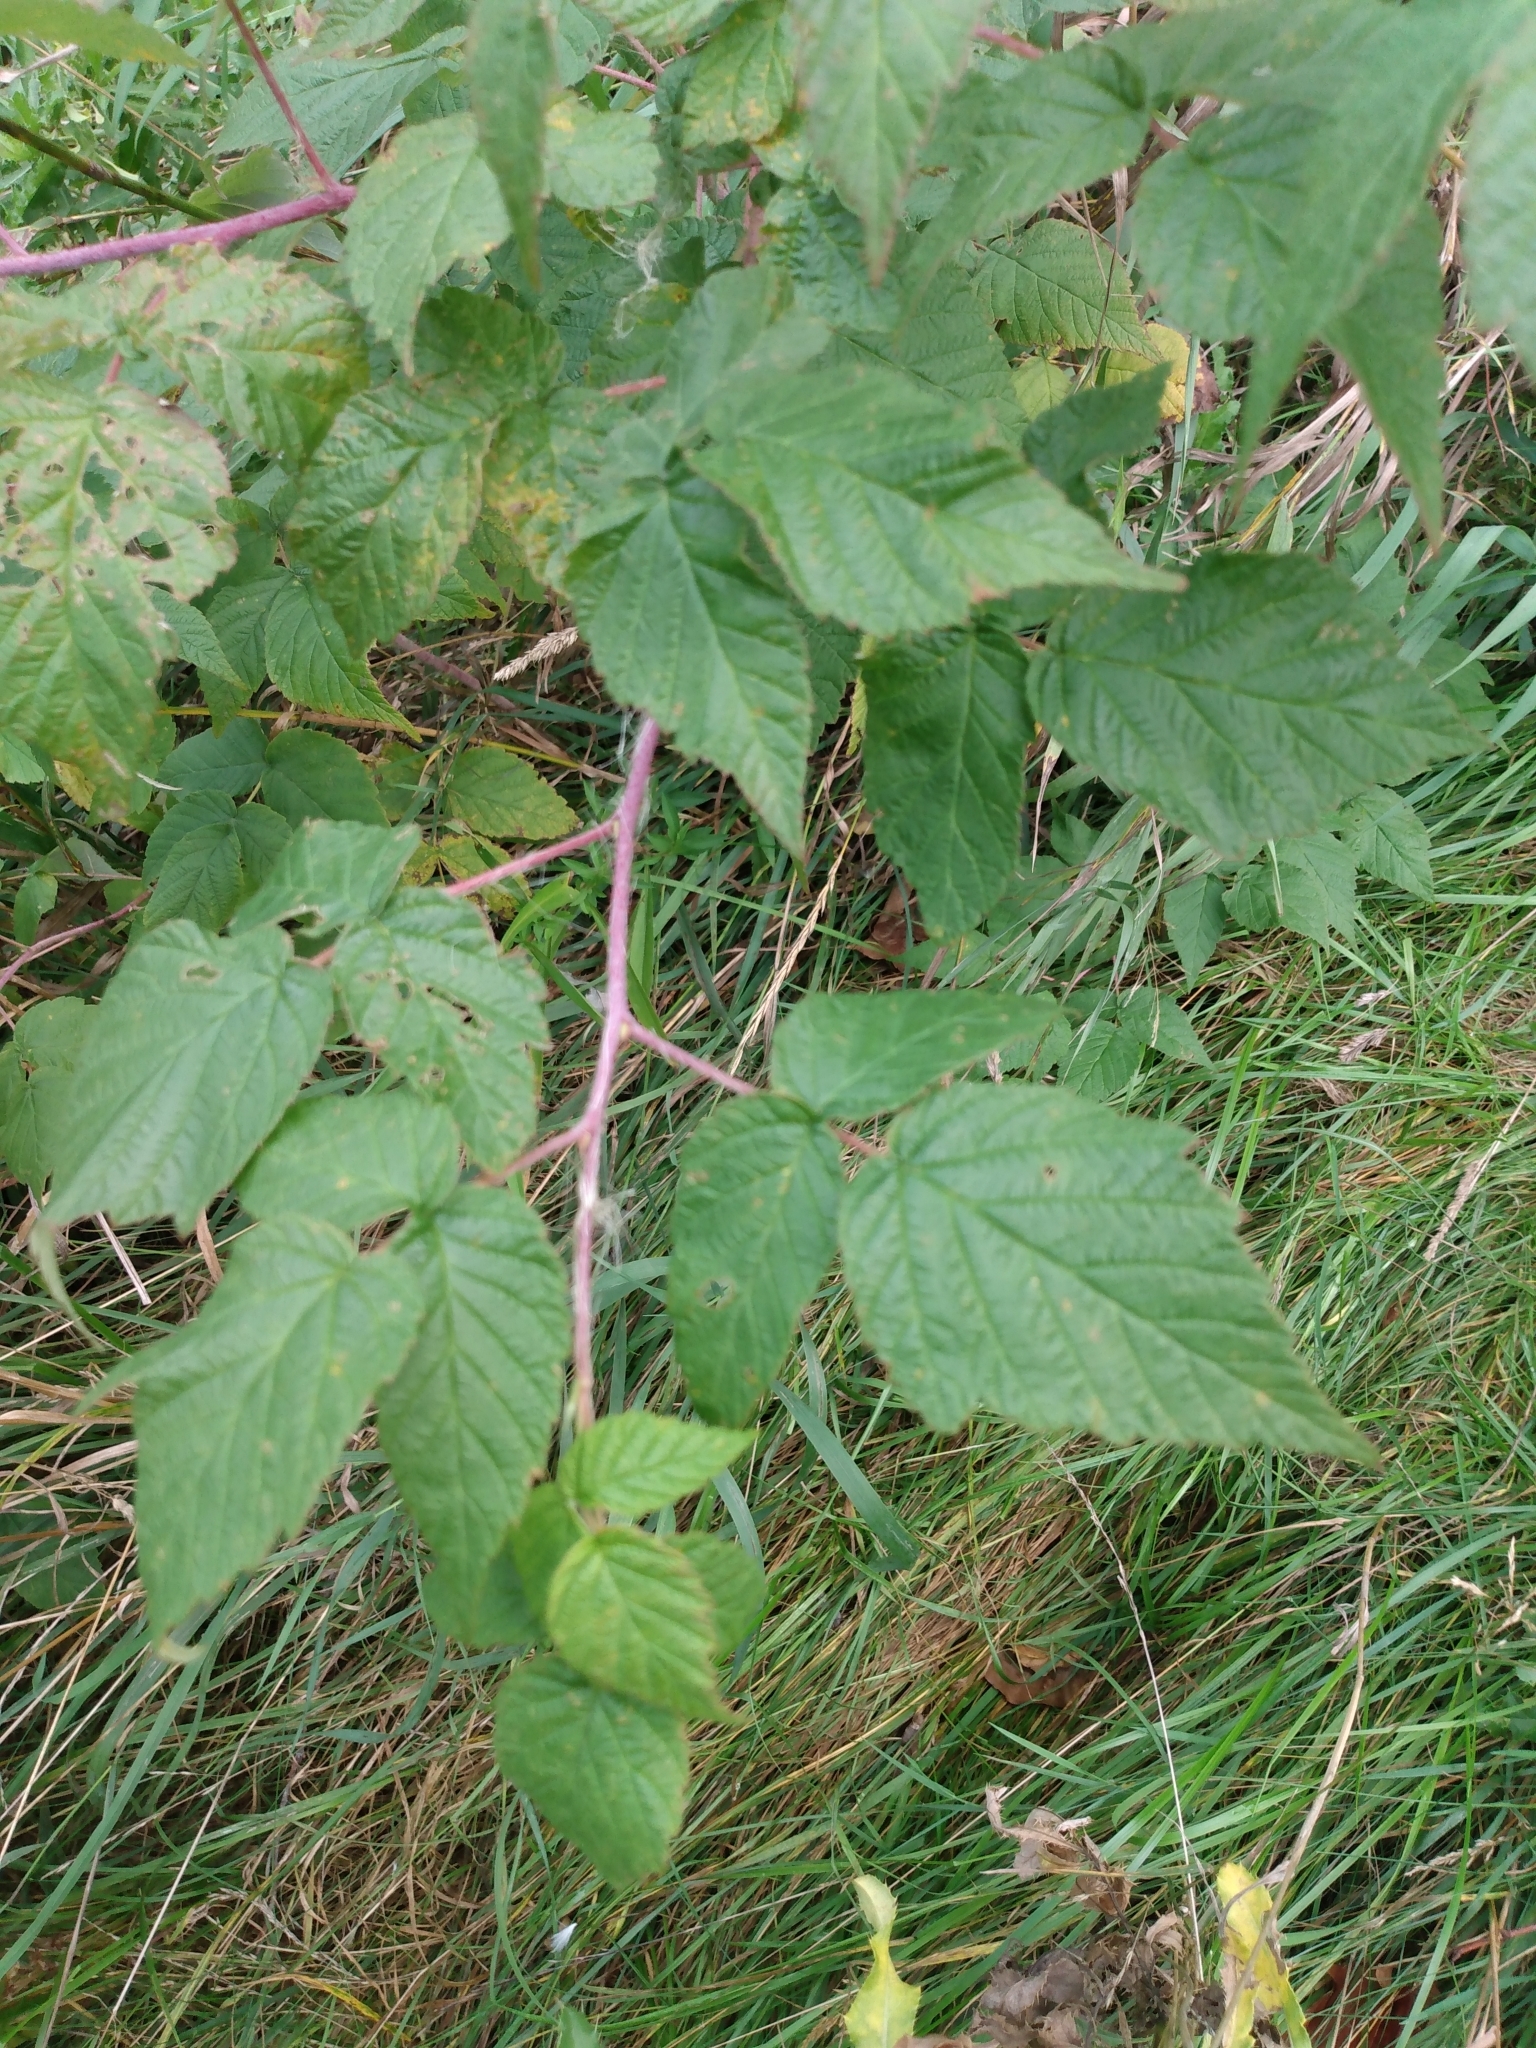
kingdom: Plantae
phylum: Tracheophyta
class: Magnoliopsida
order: Rosales
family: Rosaceae
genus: Rubus
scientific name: Rubus idaeus
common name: Raspberry
